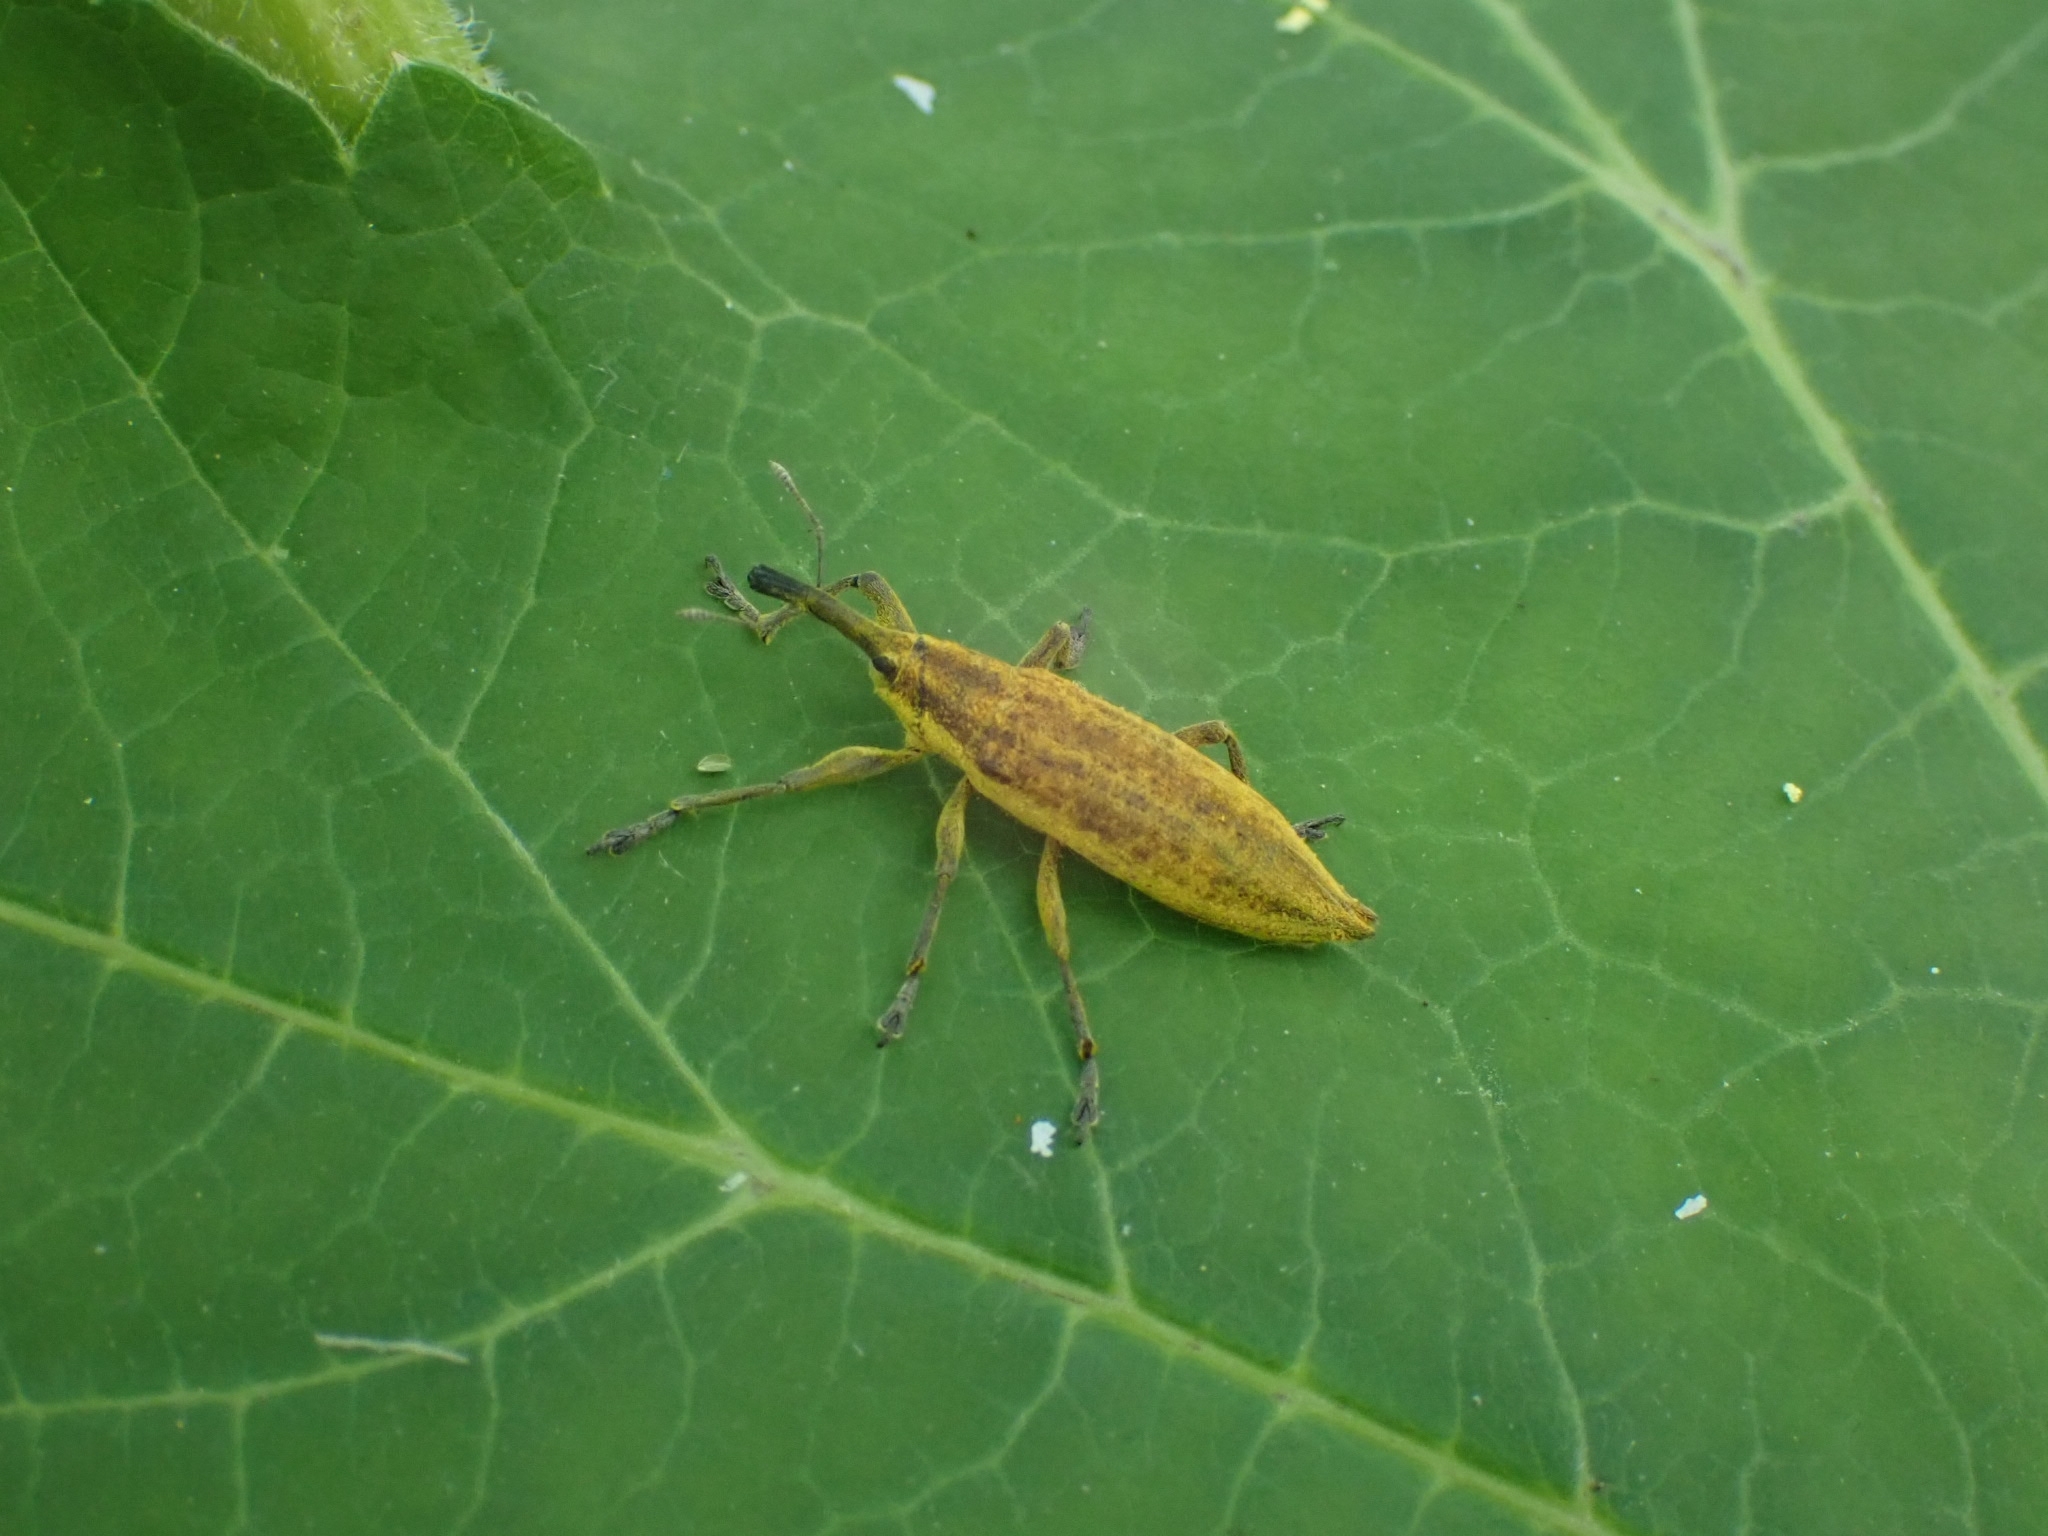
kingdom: Animalia
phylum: Arthropoda
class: Insecta
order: Coleoptera
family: Curculionidae
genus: Lixus
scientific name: Lixus iridis
